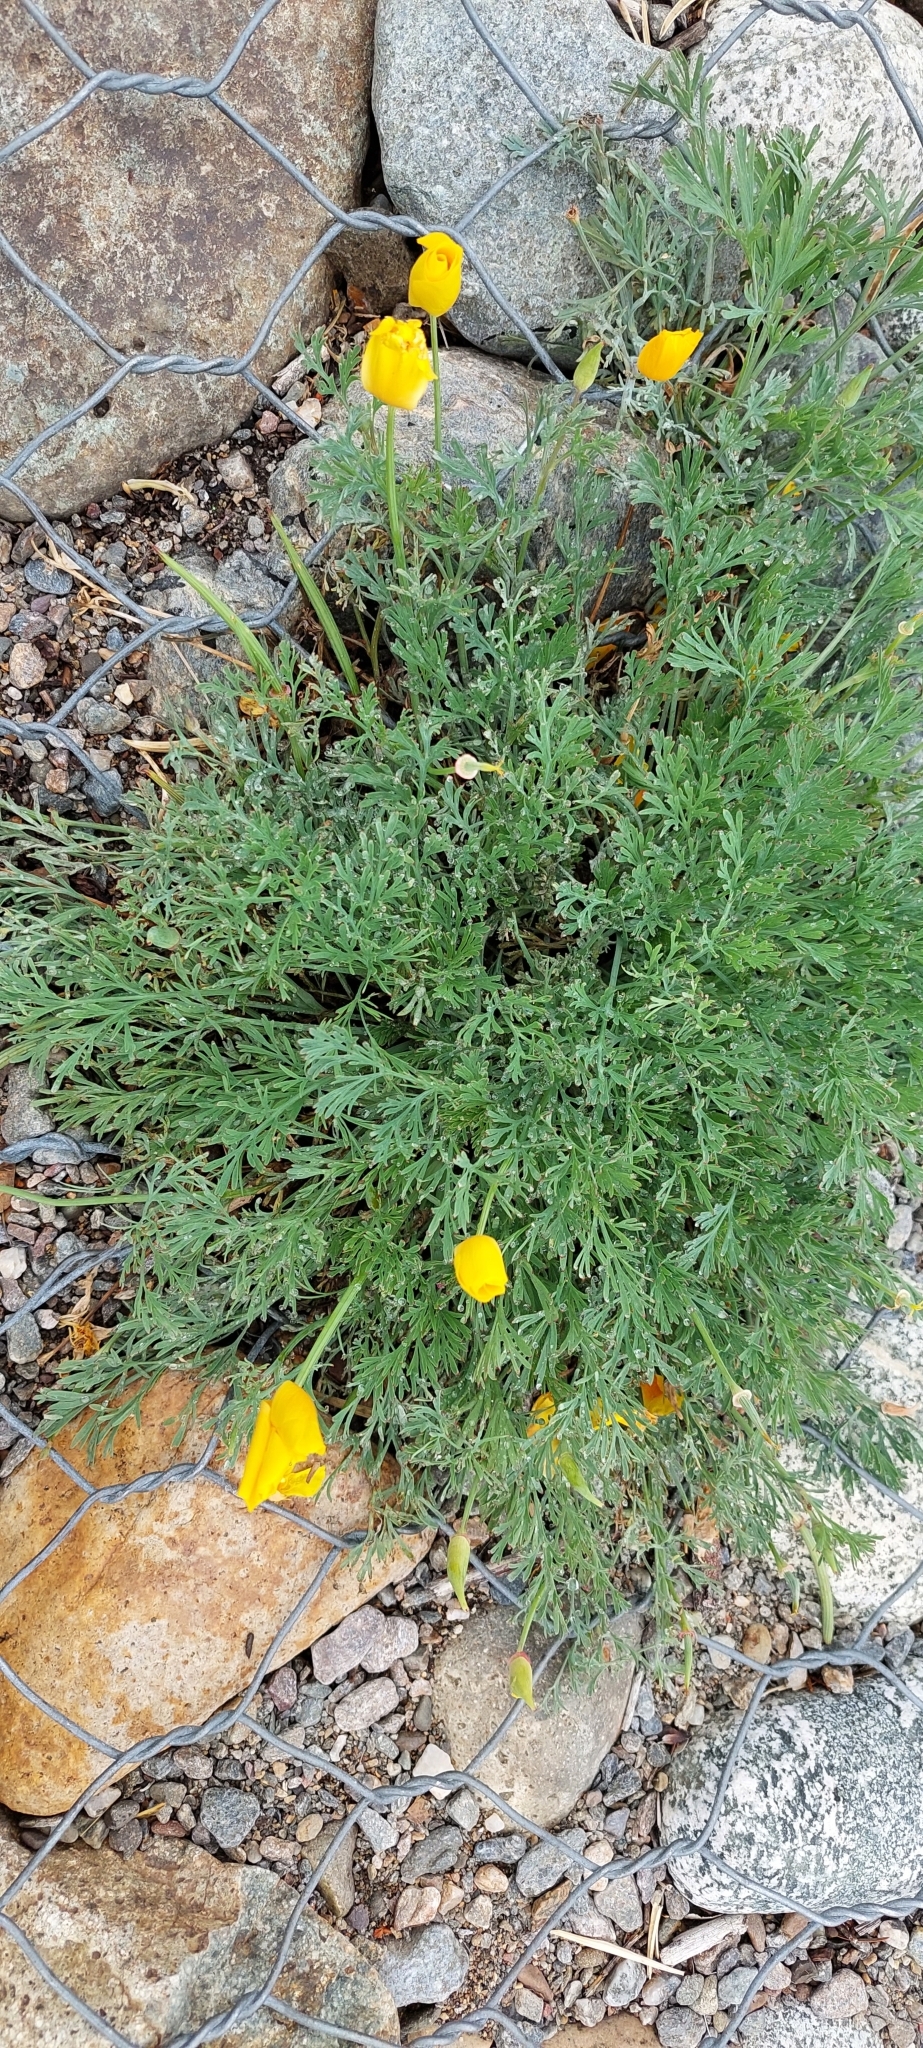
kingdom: Plantae
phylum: Tracheophyta
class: Magnoliopsida
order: Ranunculales
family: Papaveraceae
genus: Eschscholzia
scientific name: Eschscholzia californica
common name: California poppy
